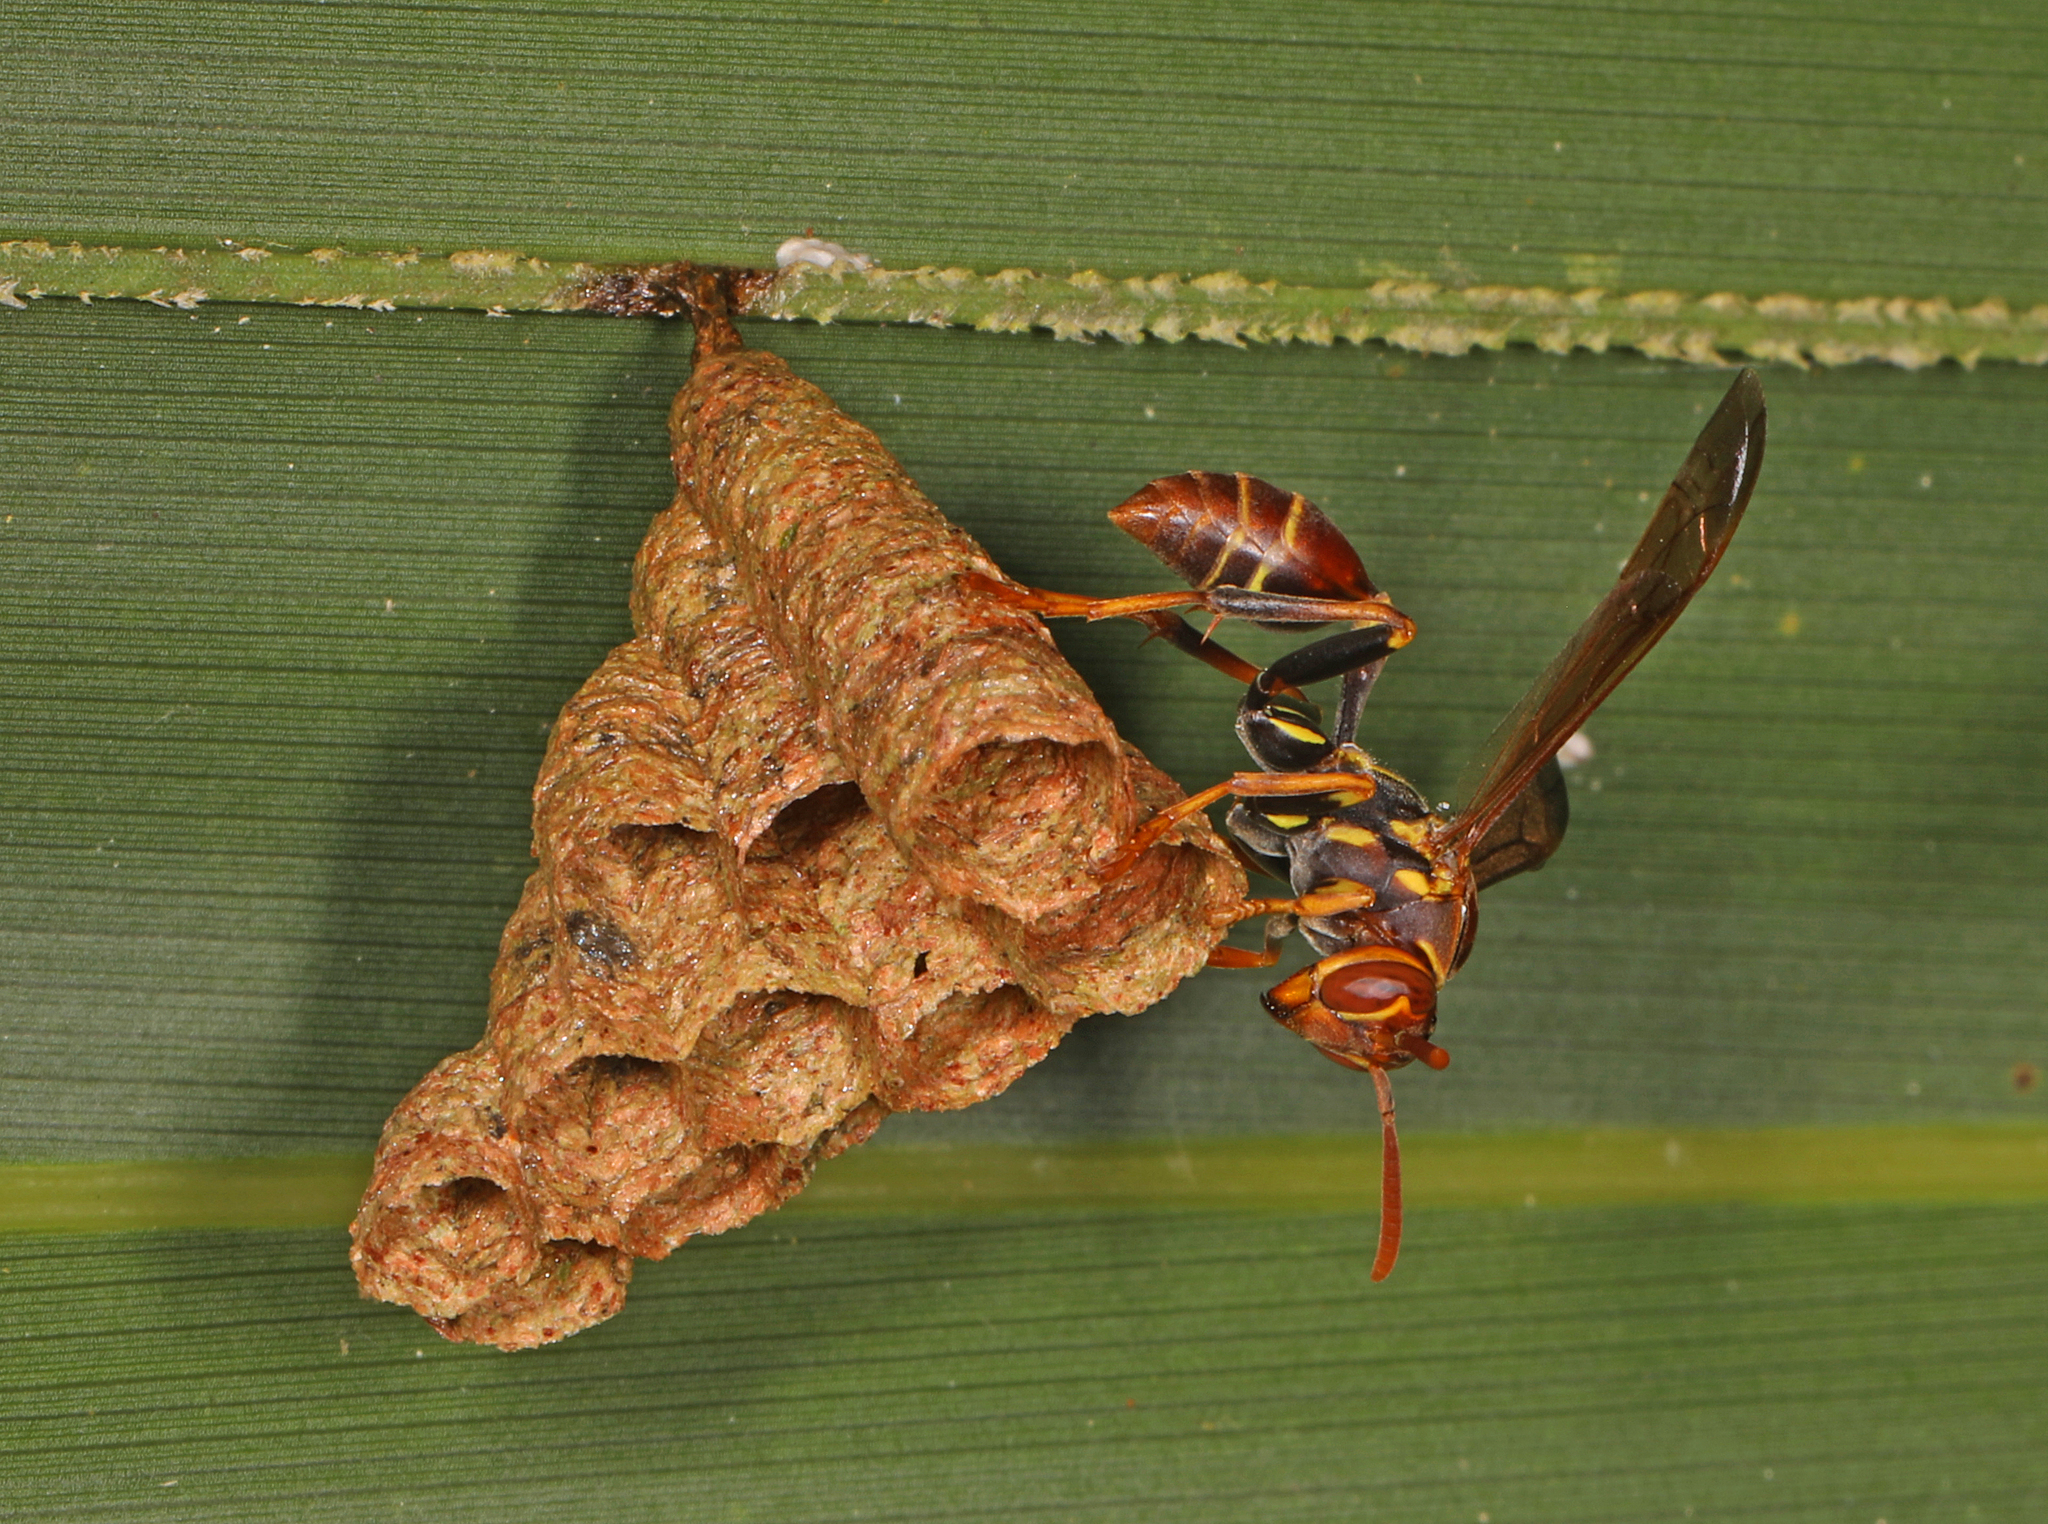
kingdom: Animalia
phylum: Arthropoda
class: Insecta
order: Hymenoptera
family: Vespidae
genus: Mischocyttarus
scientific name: Mischocyttarus mexicanus
